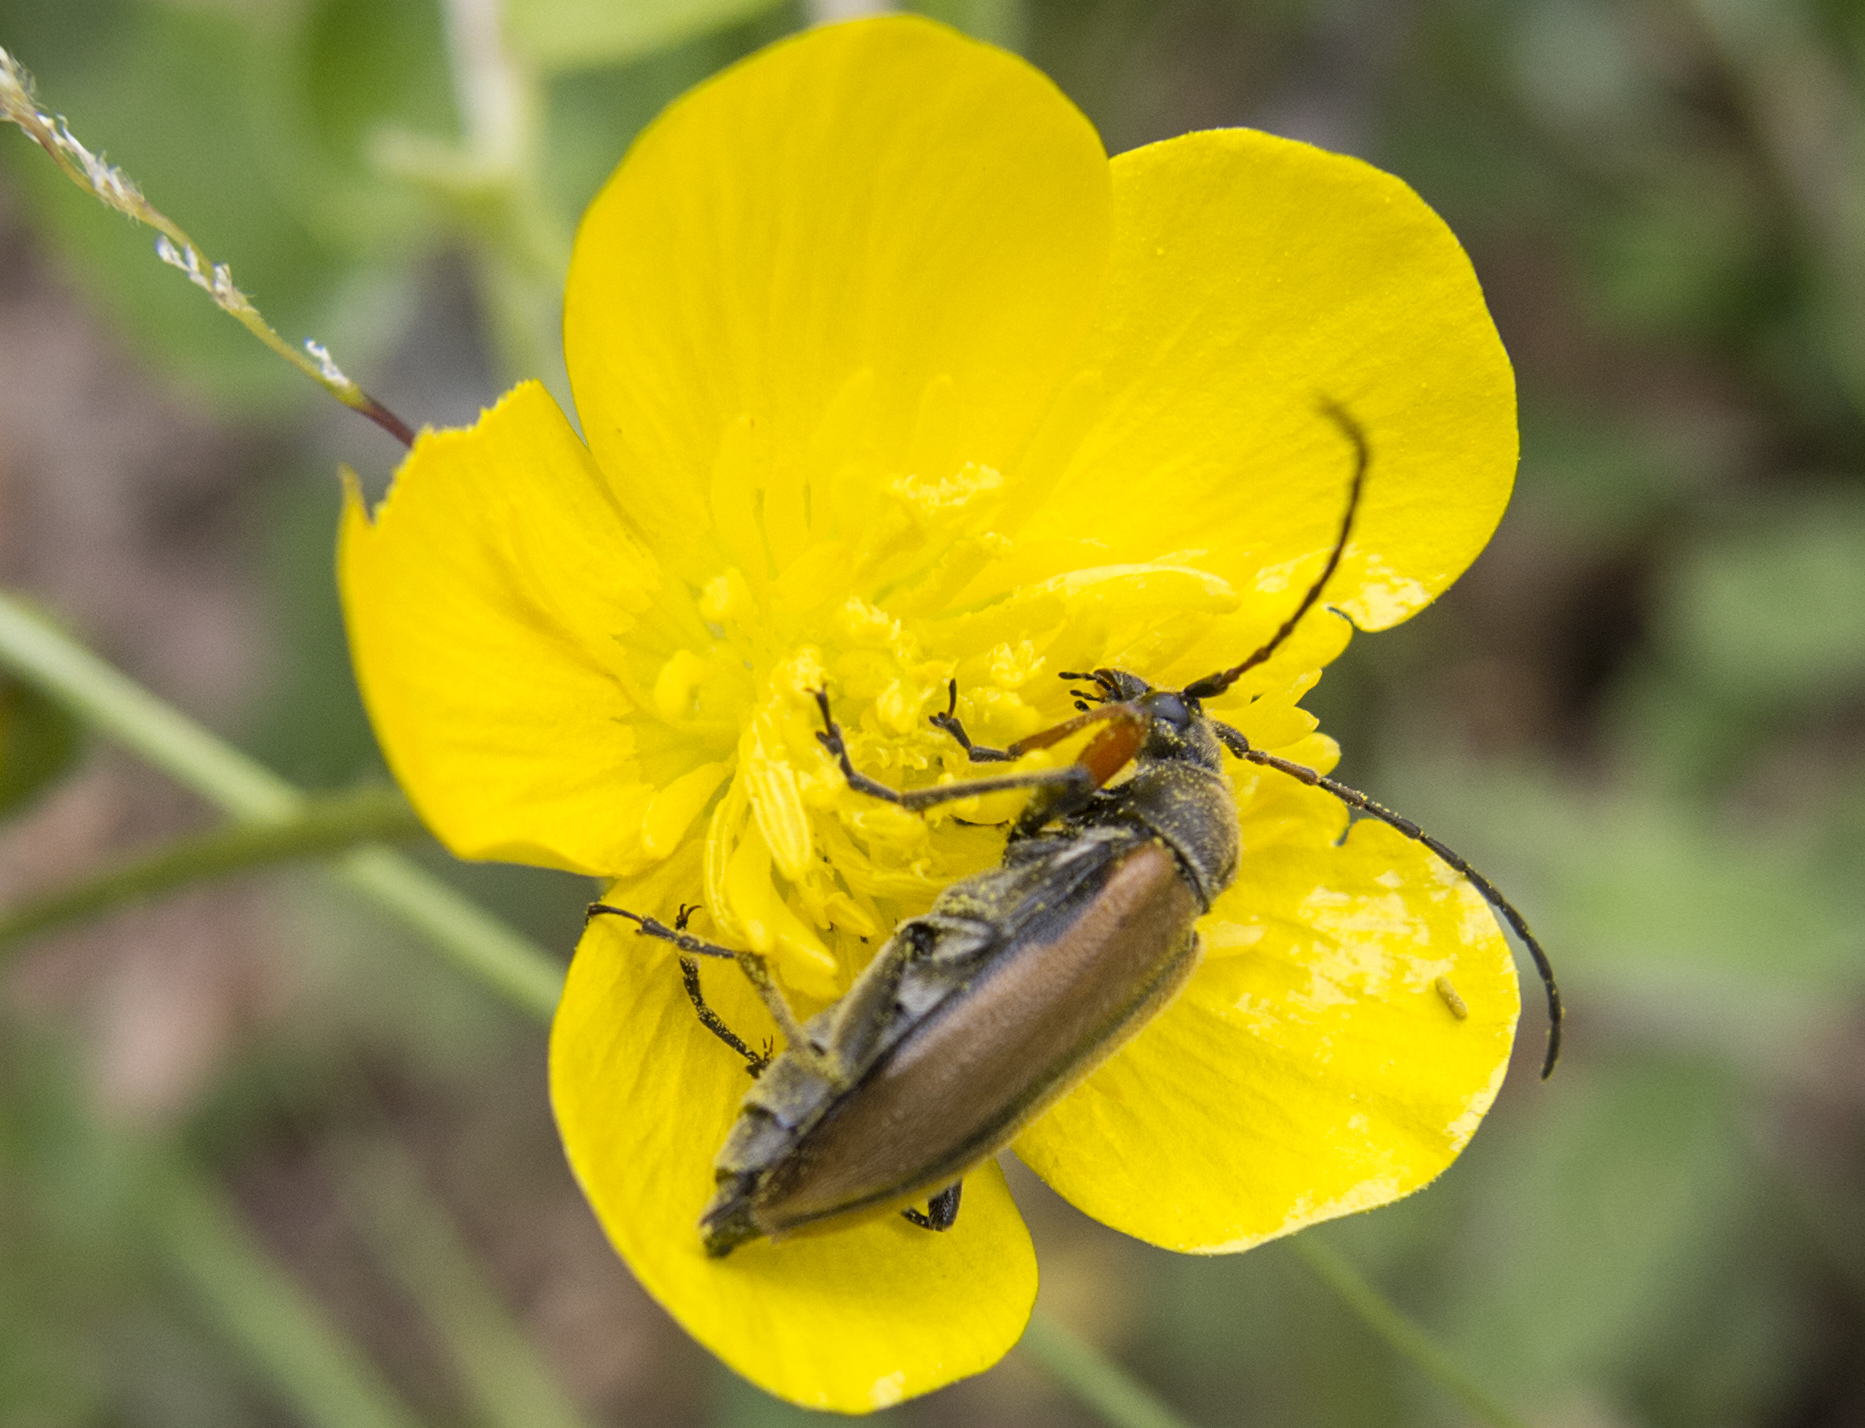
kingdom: Animalia
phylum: Arthropoda
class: Insecta
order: Coleoptera
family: Cerambycidae
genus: Cortodera
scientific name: Cortodera flavimana
